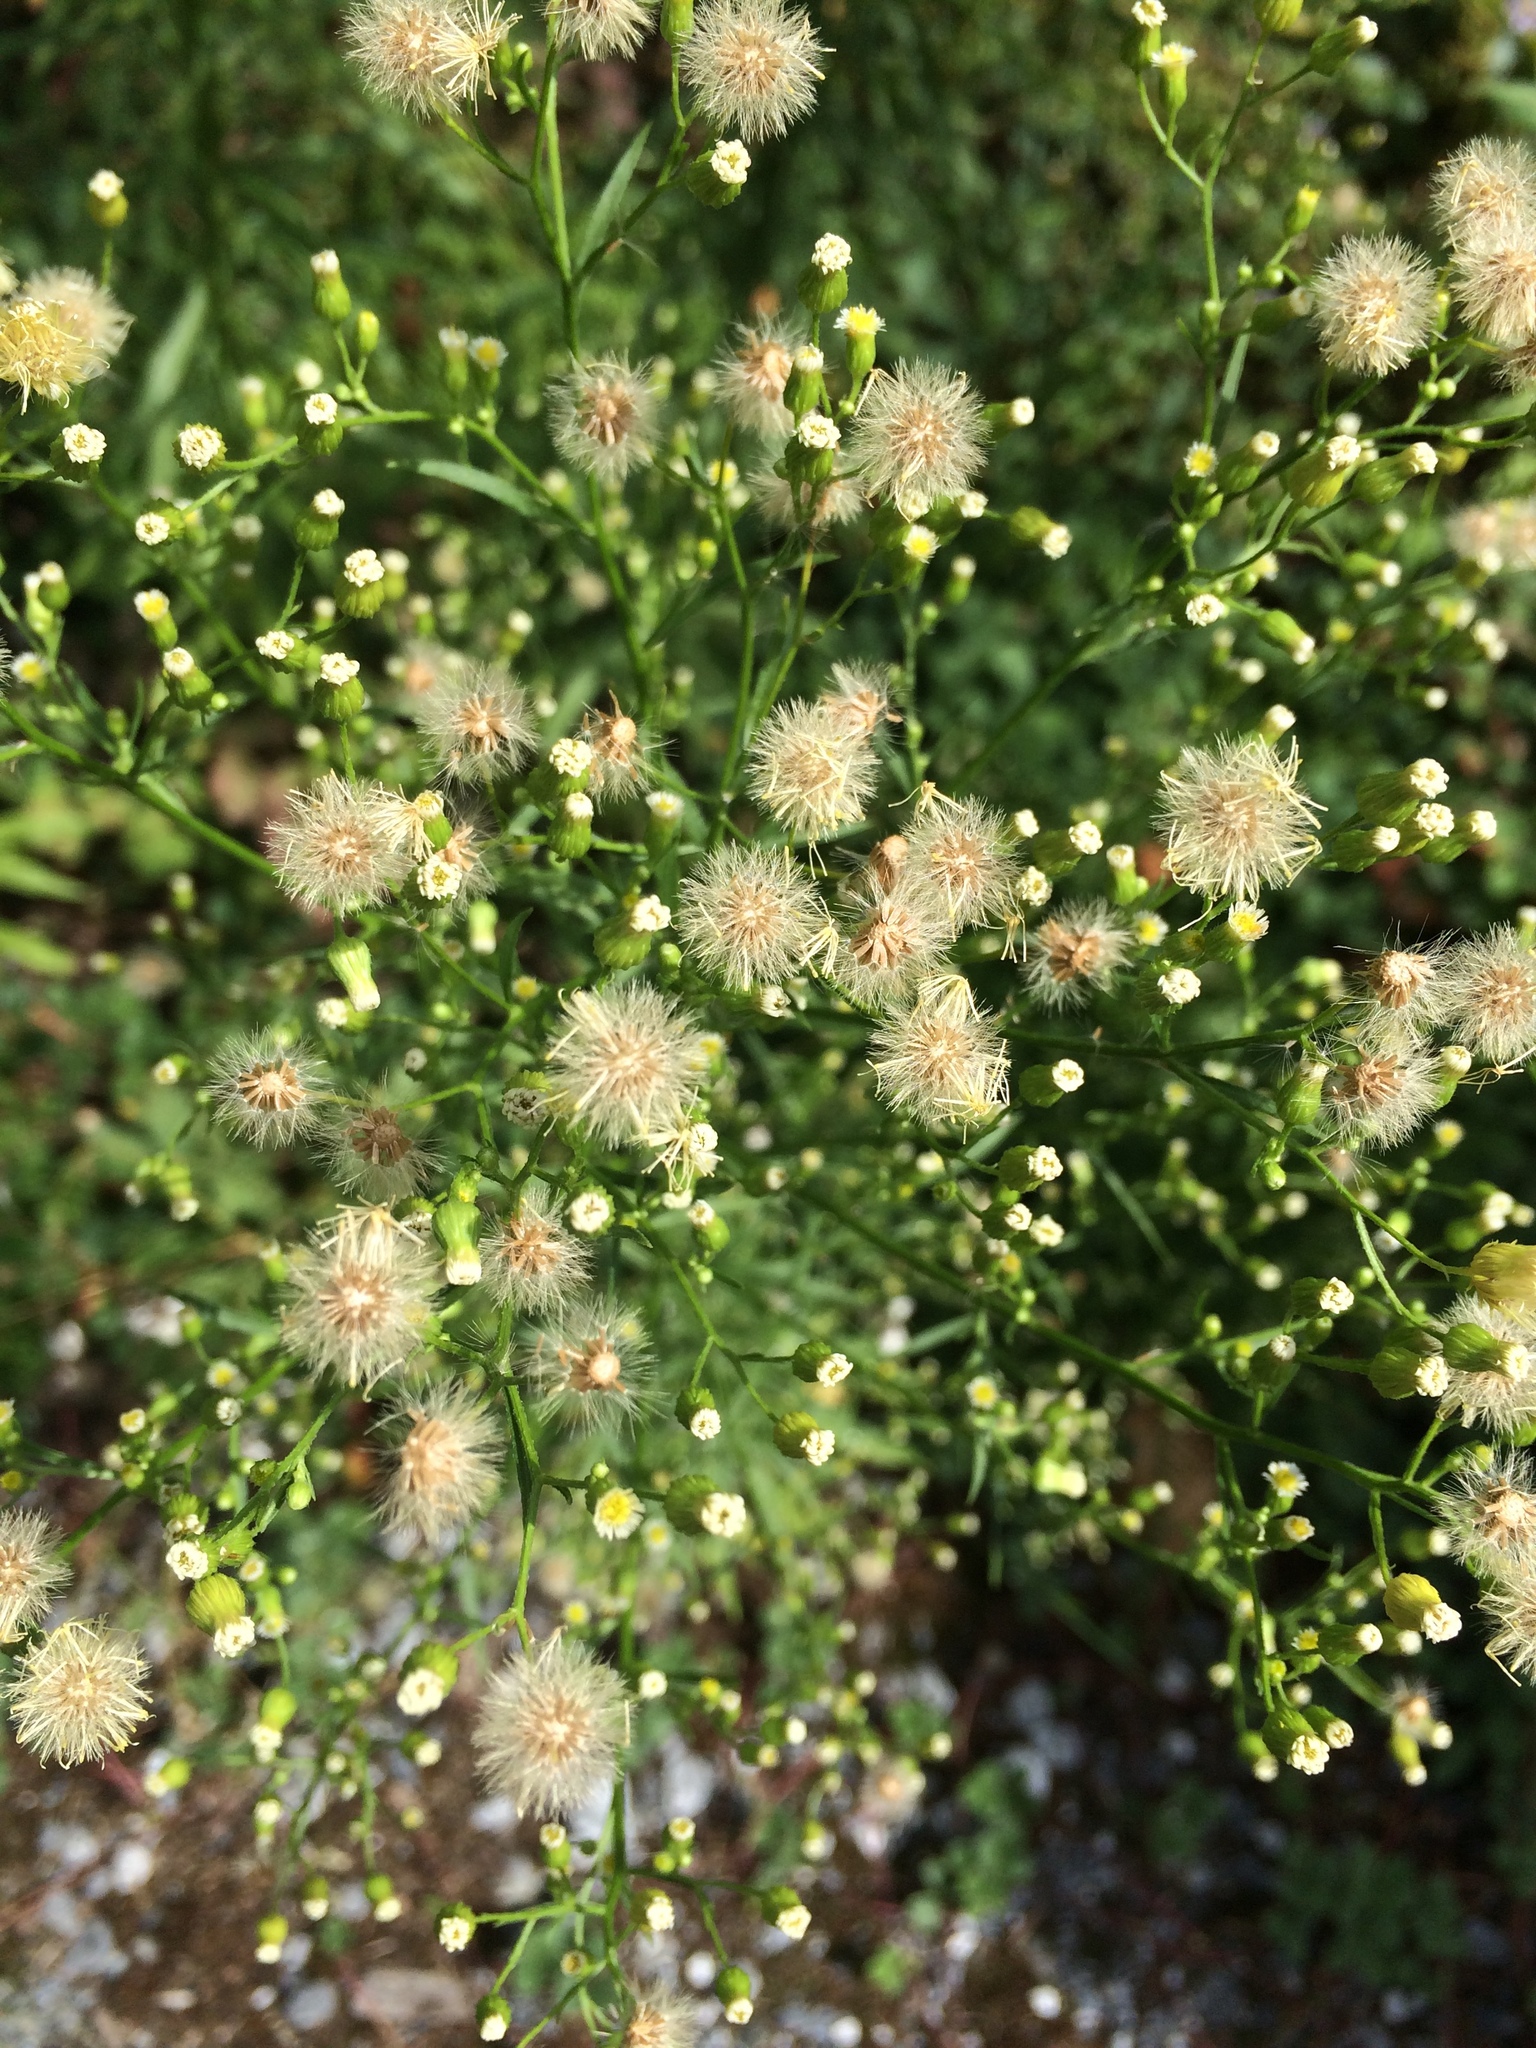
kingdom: Plantae
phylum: Tracheophyta
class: Magnoliopsida
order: Asterales
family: Asteraceae
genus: Erigeron
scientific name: Erigeron canadensis
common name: Canadian fleabane
